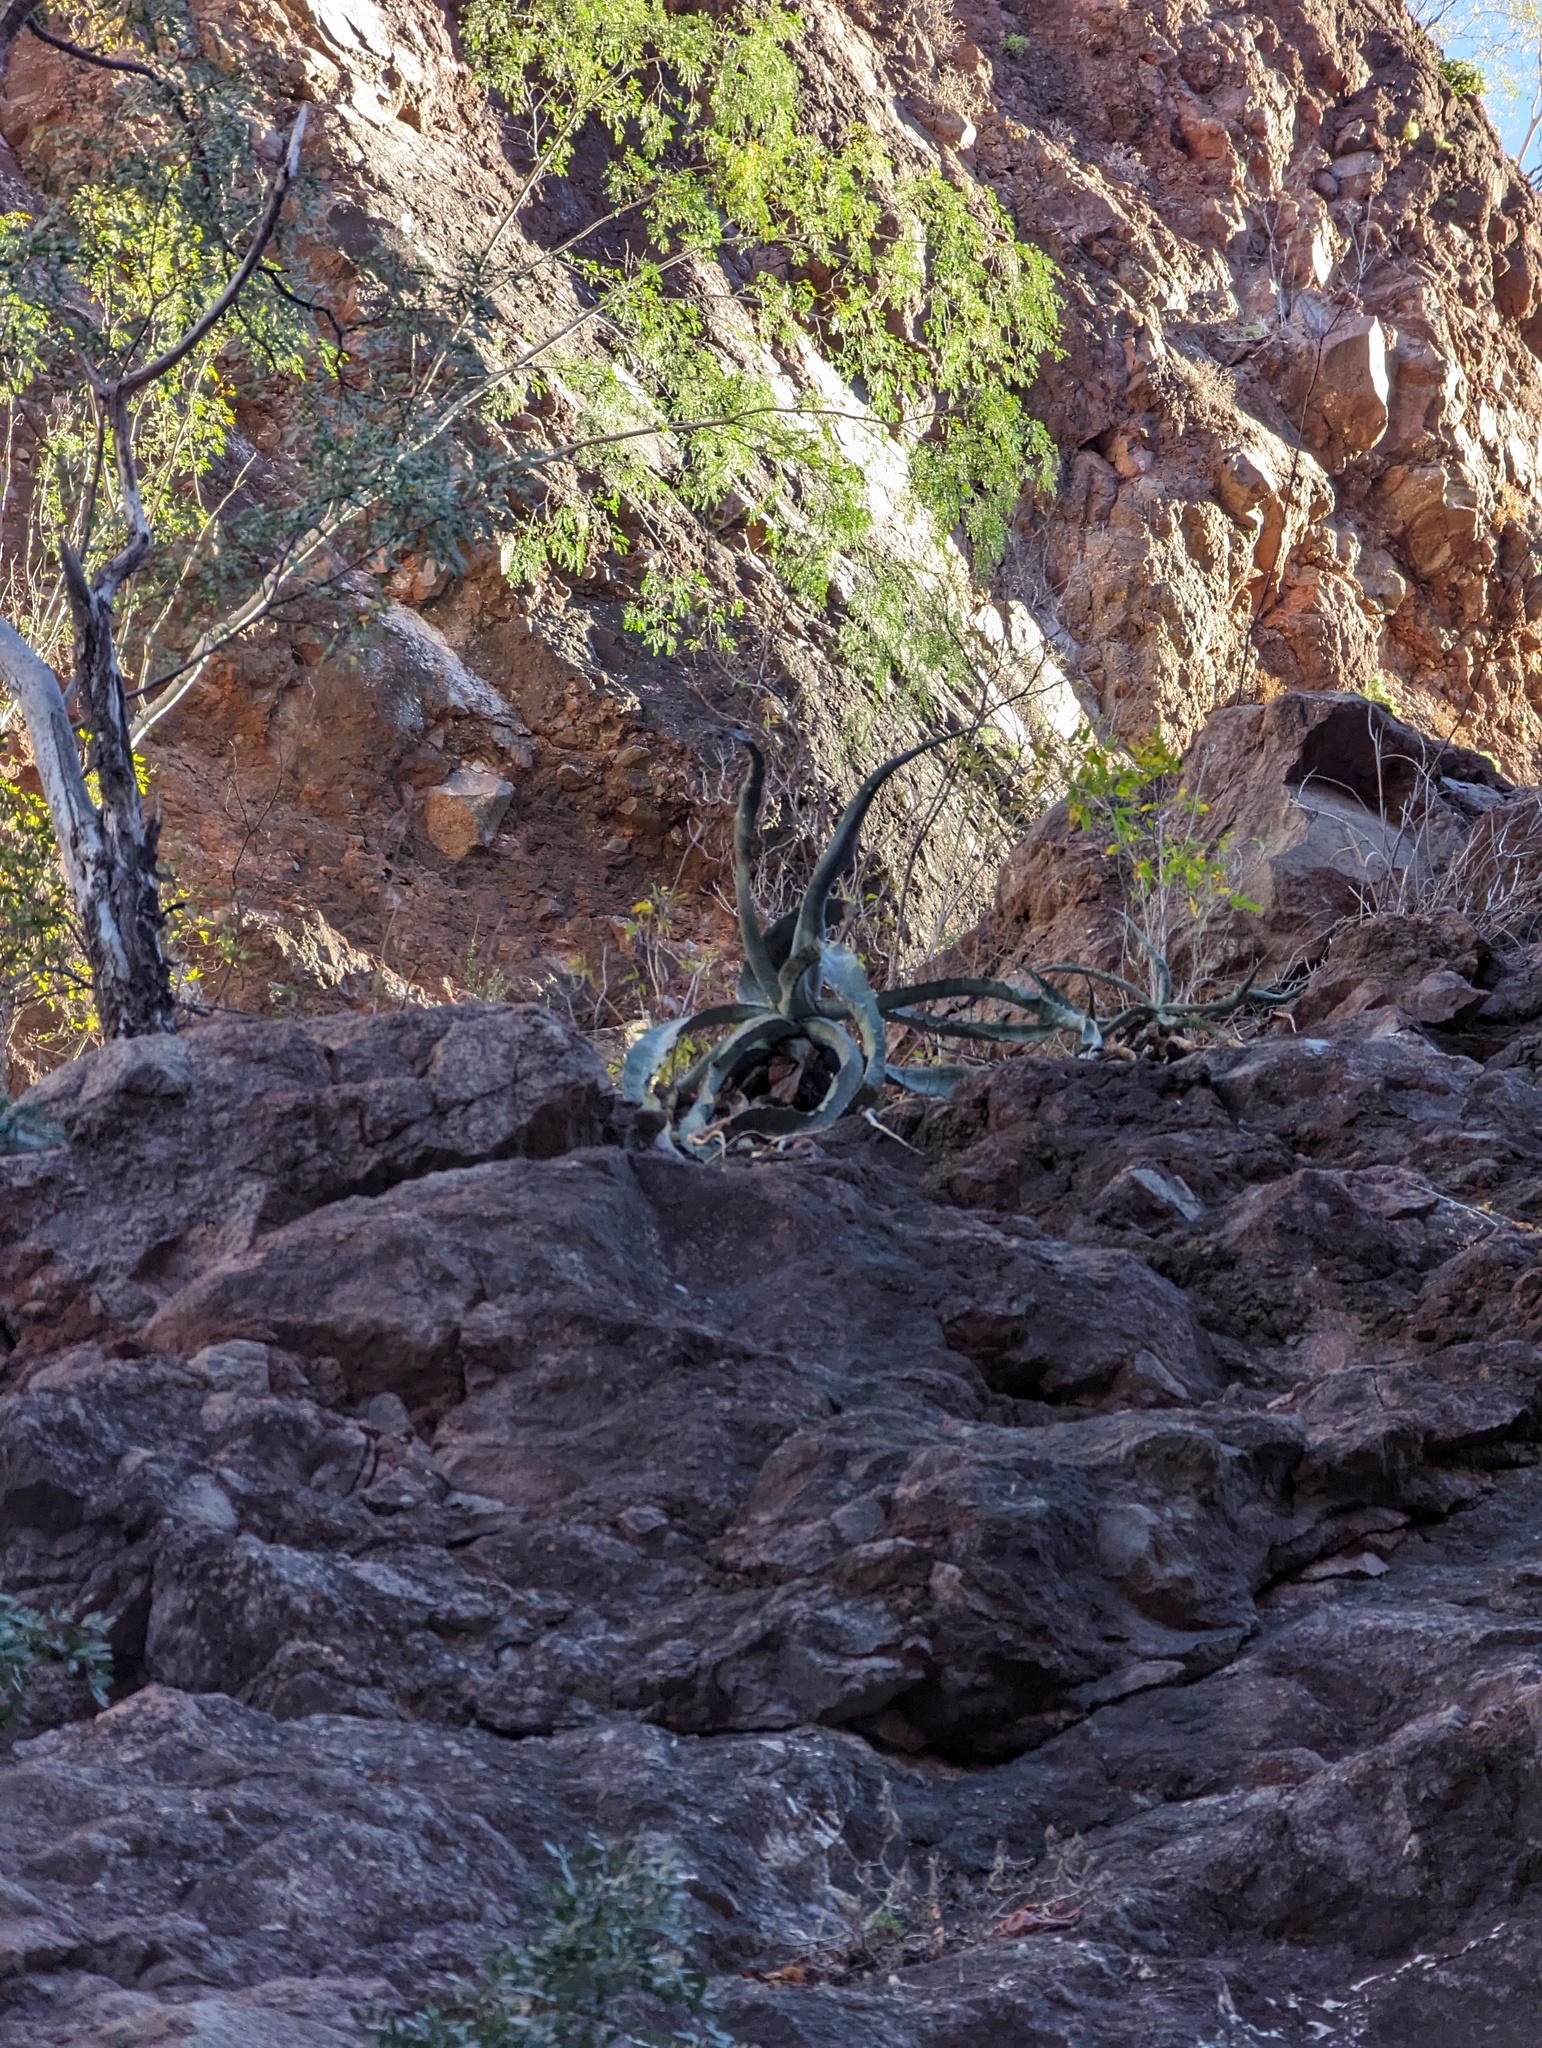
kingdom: Plantae
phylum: Tracheophyta
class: Liliopsida
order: Asparagales
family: Asparagaceae
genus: Agave
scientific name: Agave sobria
